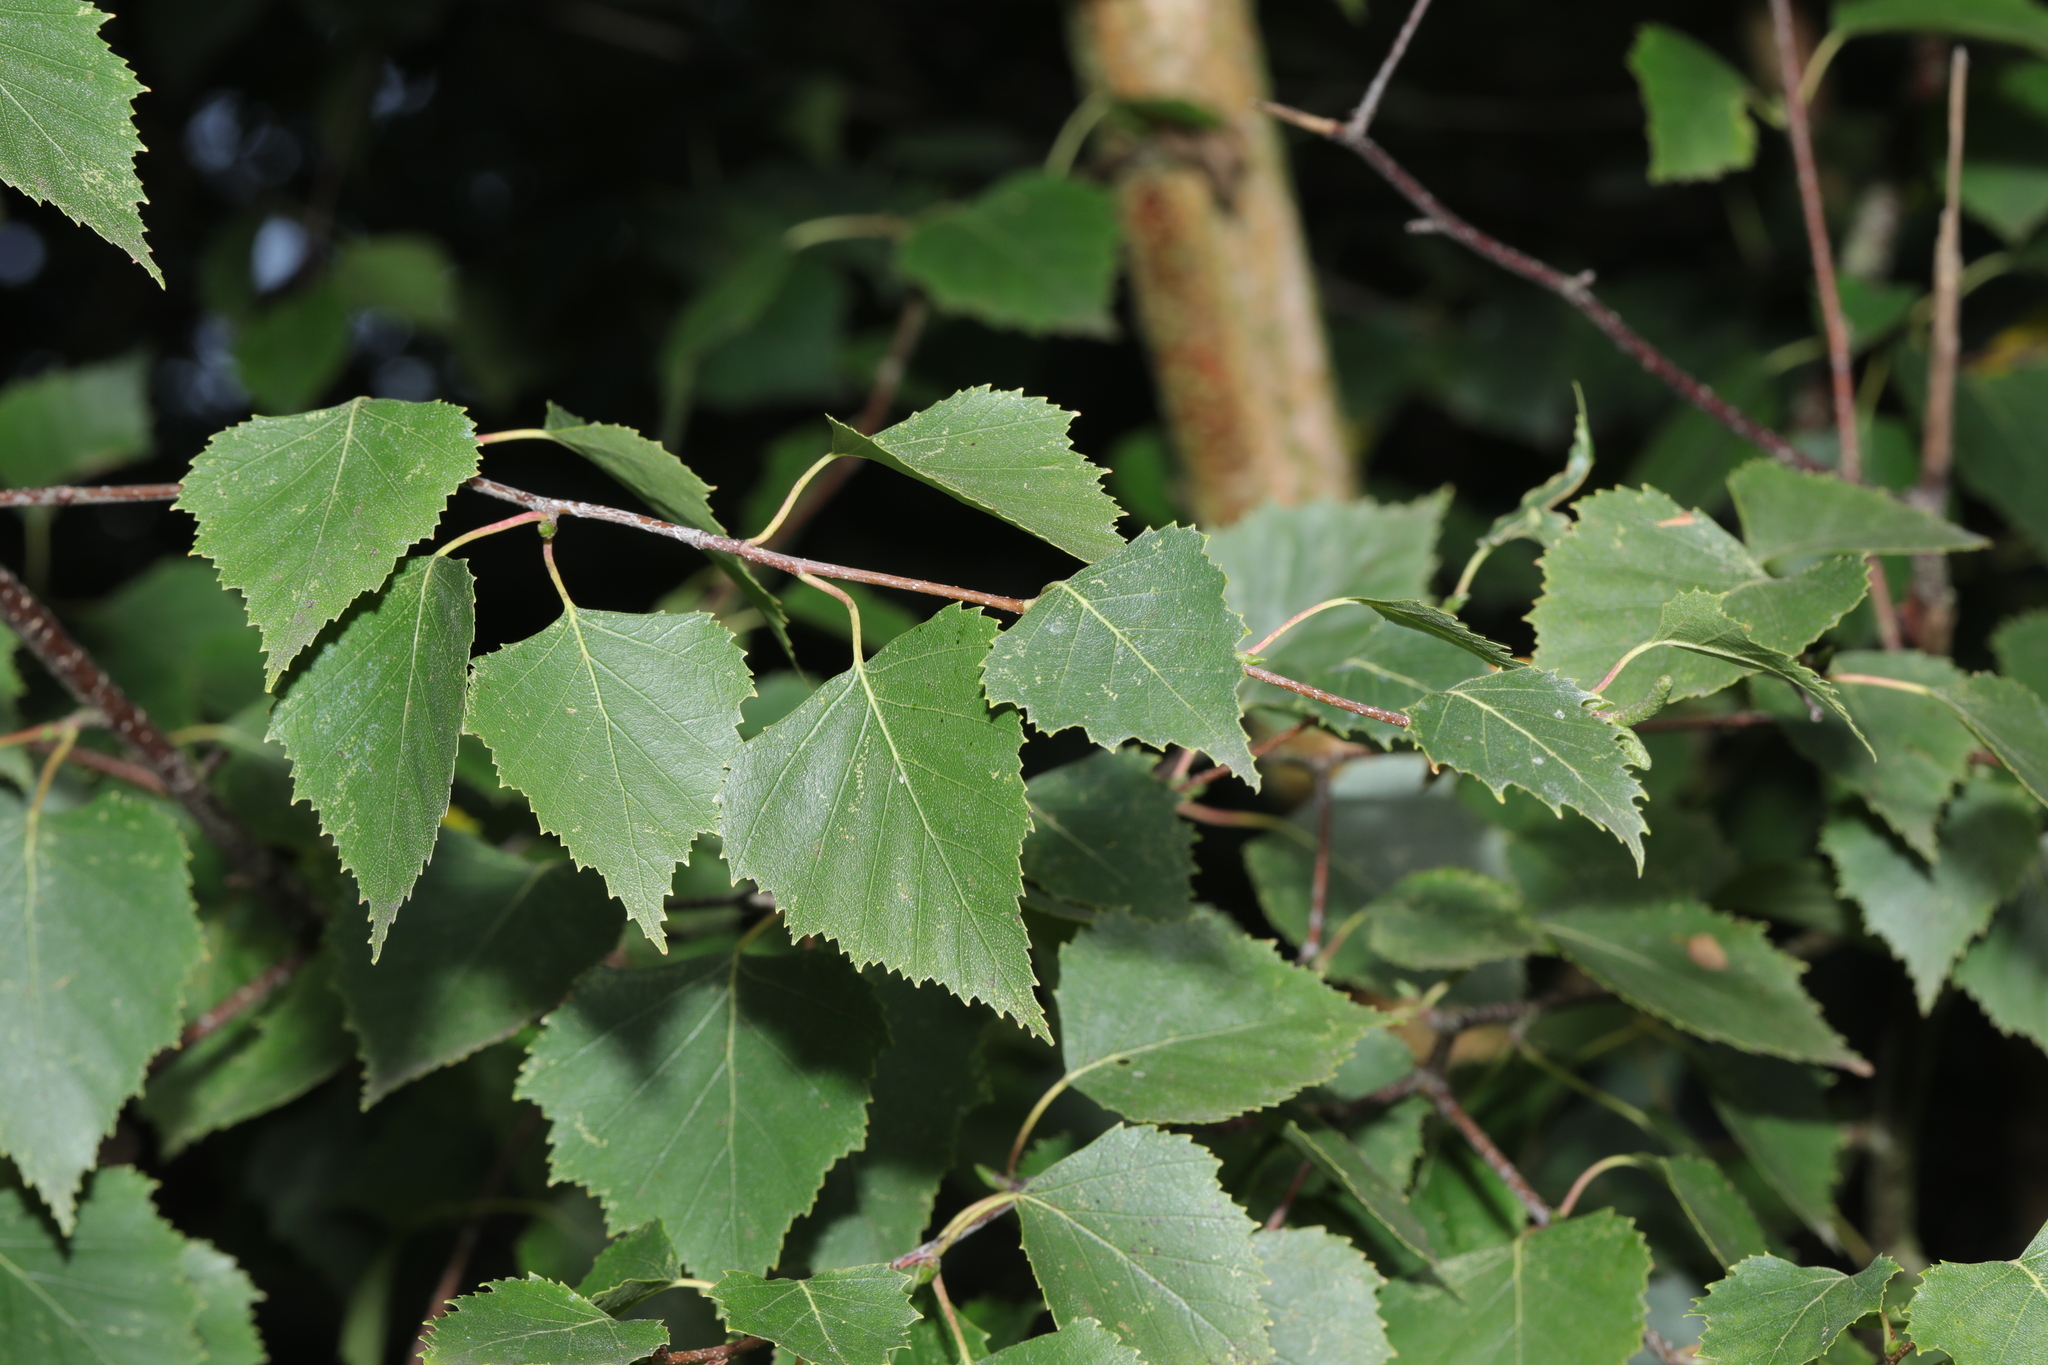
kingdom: Plantae
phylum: Tracheophyta
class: Magnoliopsida
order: Fagales
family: Betulaceae
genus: Betula
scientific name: Betula pendula
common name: Silver birch
